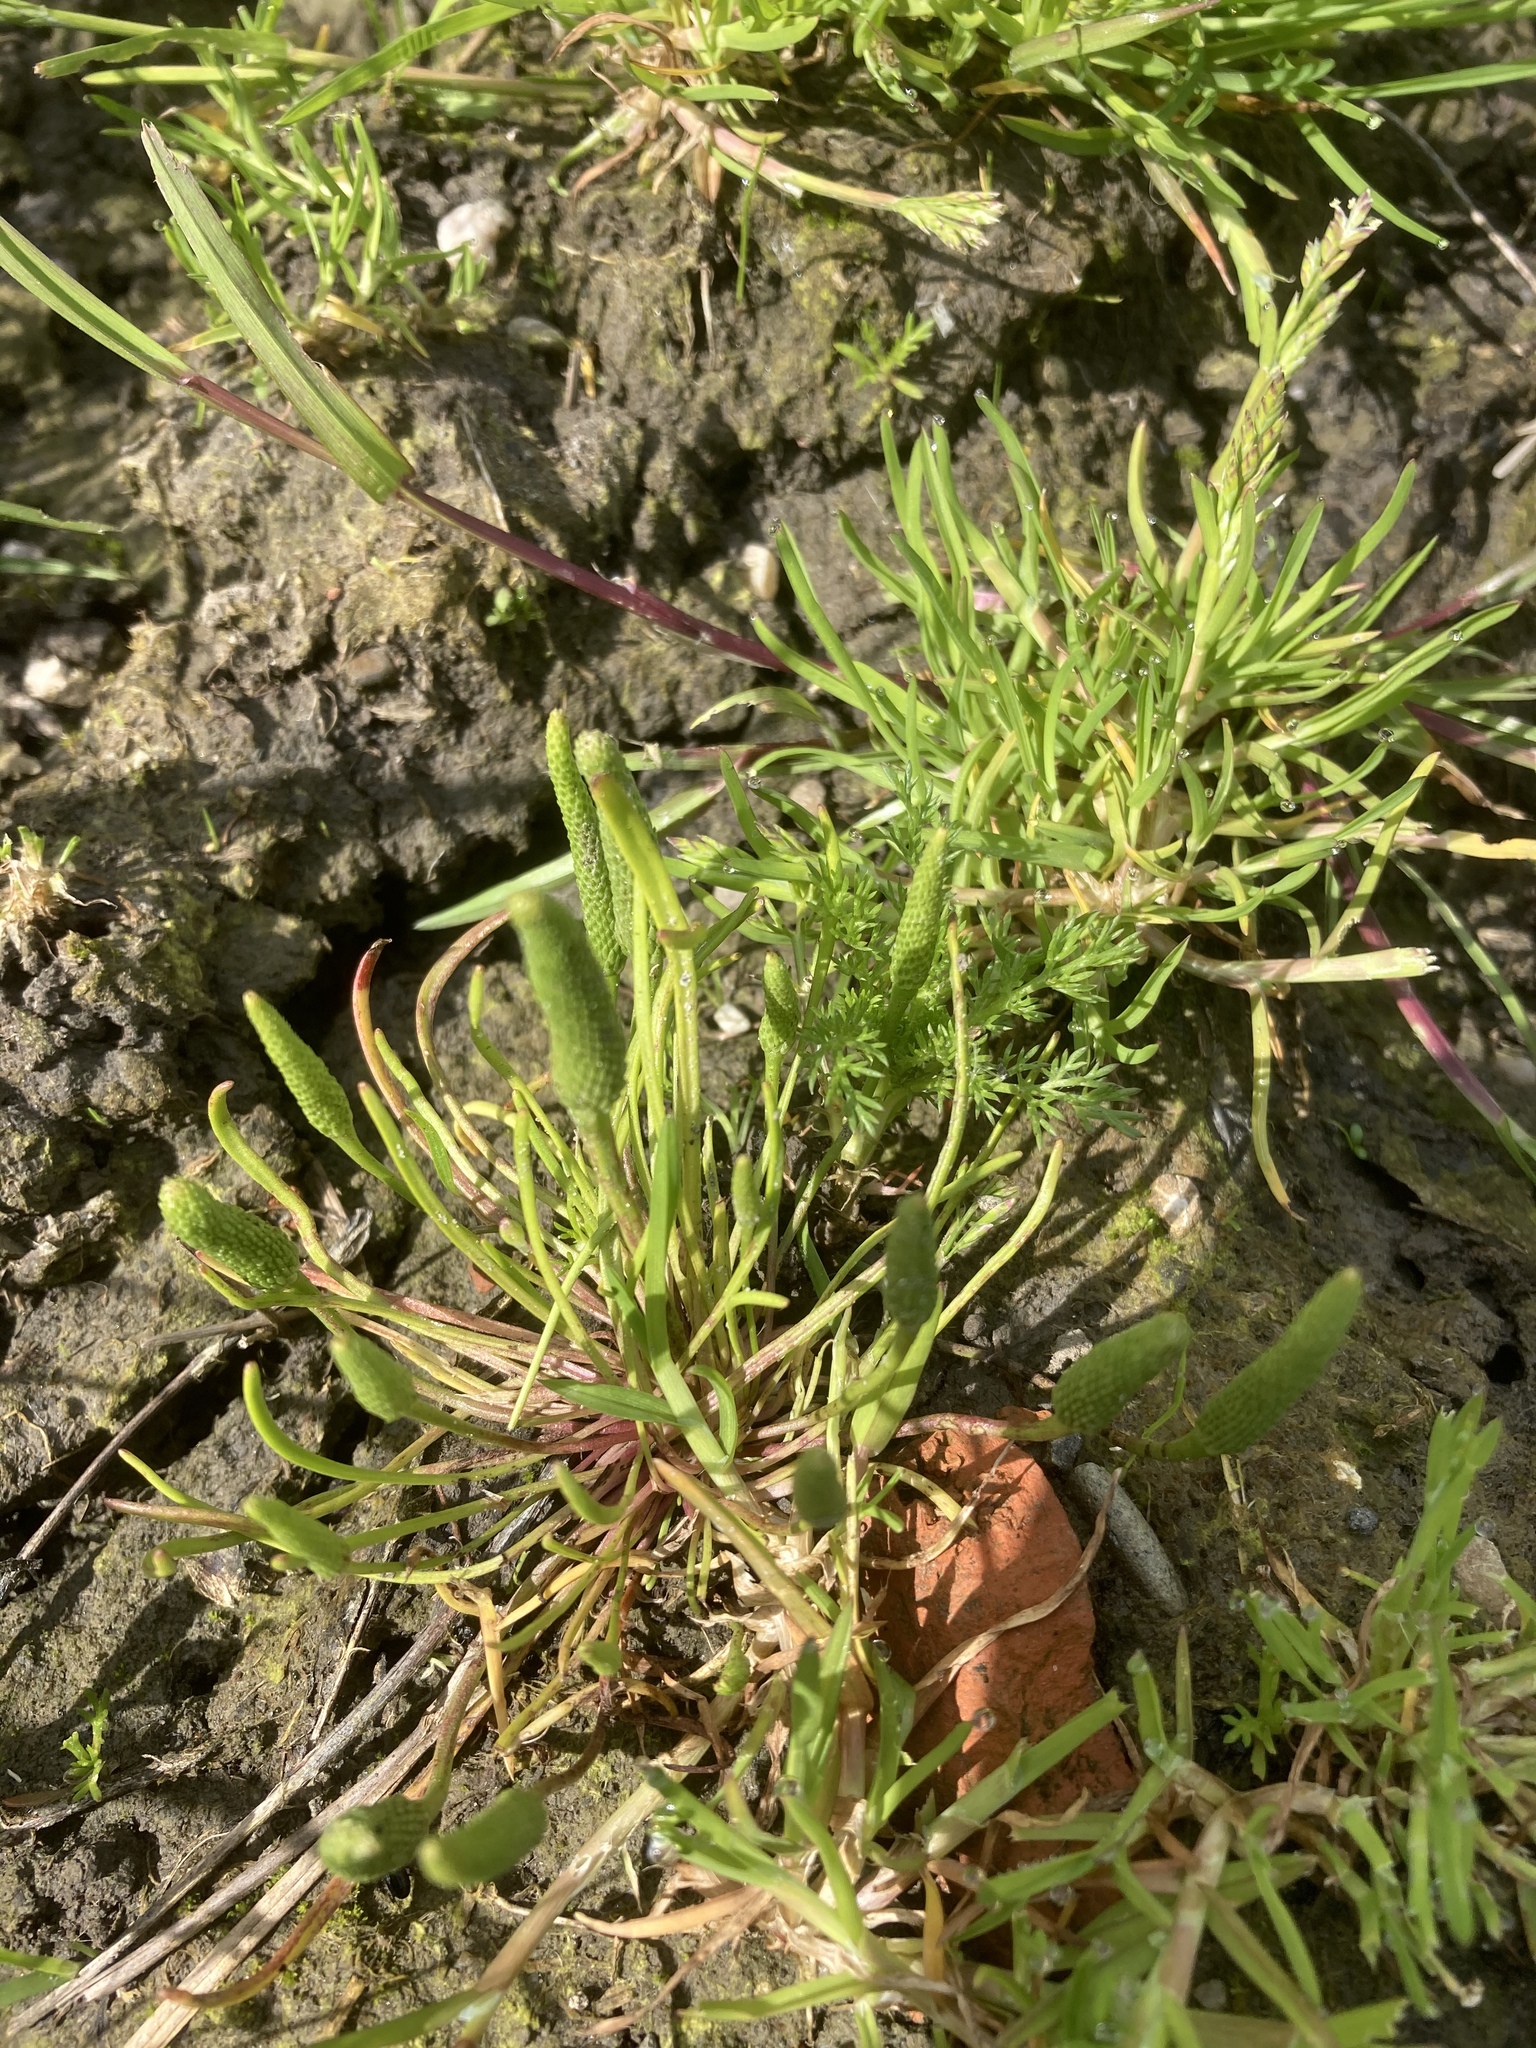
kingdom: Plantae
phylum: Tracheophyta
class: Magnoliopsida
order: Ranunculales
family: Ranunculaceae
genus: Myosurus
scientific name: Myosurus minimus
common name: Mousetail
